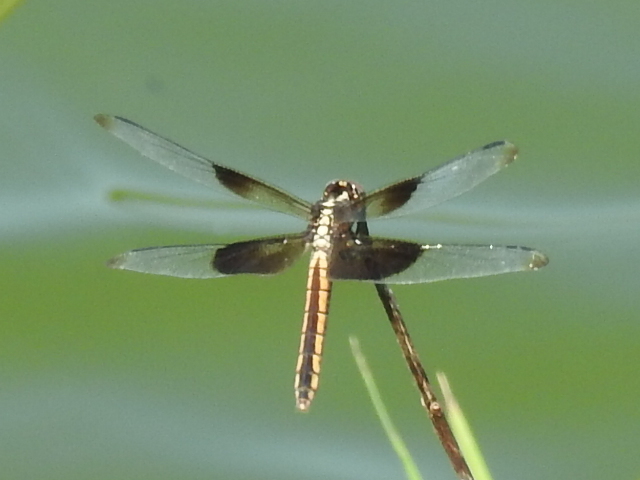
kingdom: Animalia
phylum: Arthropoda
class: Insecta
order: Odonata
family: Libellulidae
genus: Libellula
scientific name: Libellula luctuosa
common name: Widow skimmer
